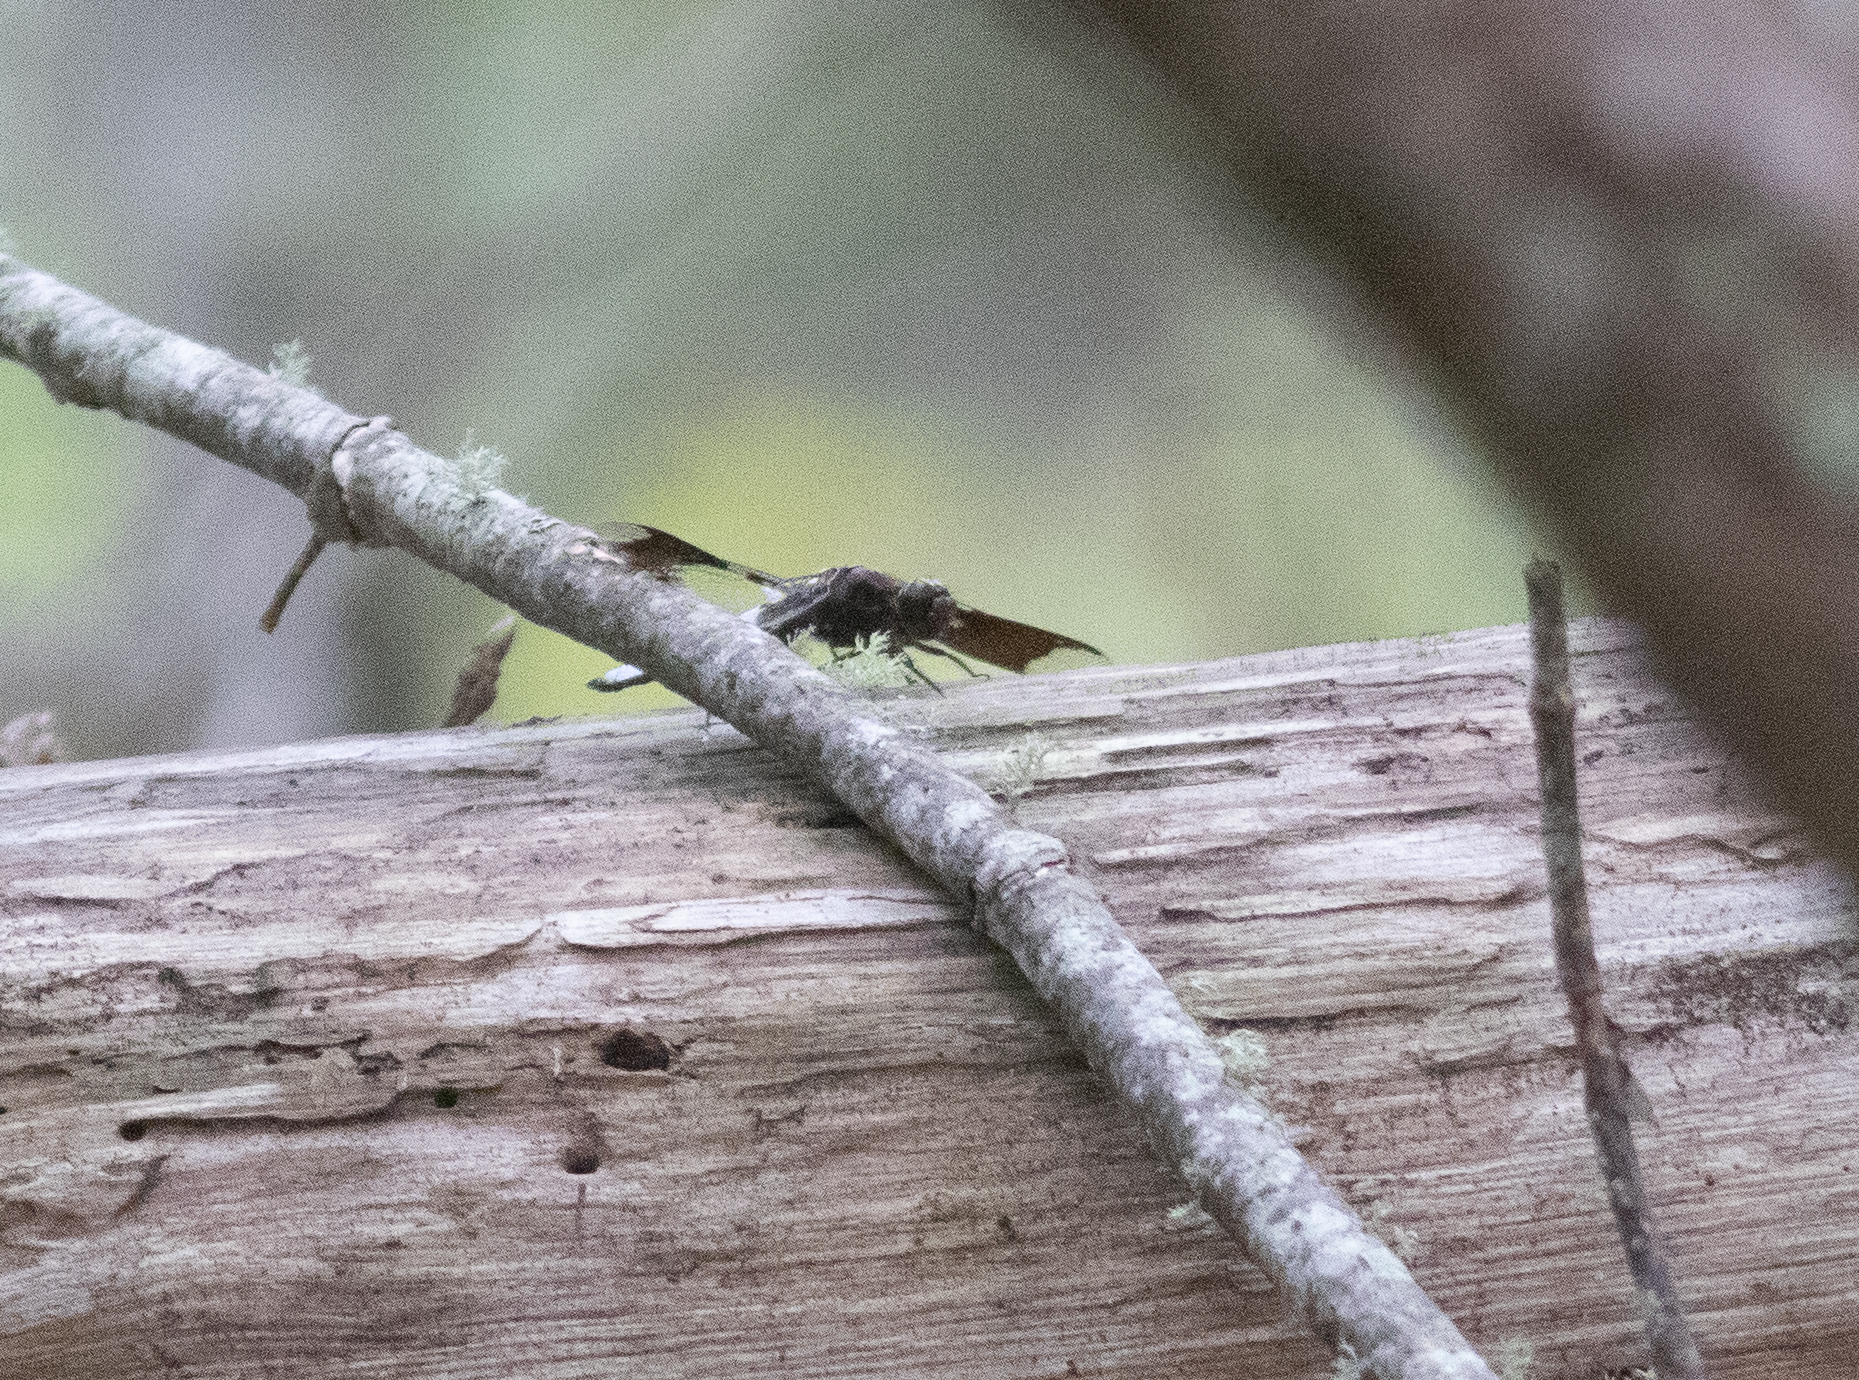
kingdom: Animalia
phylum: Arthropoda
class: Insecta
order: Odonata
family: Libellulidae
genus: Plathemis
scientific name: Plathemis lydia
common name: Common whitetail
